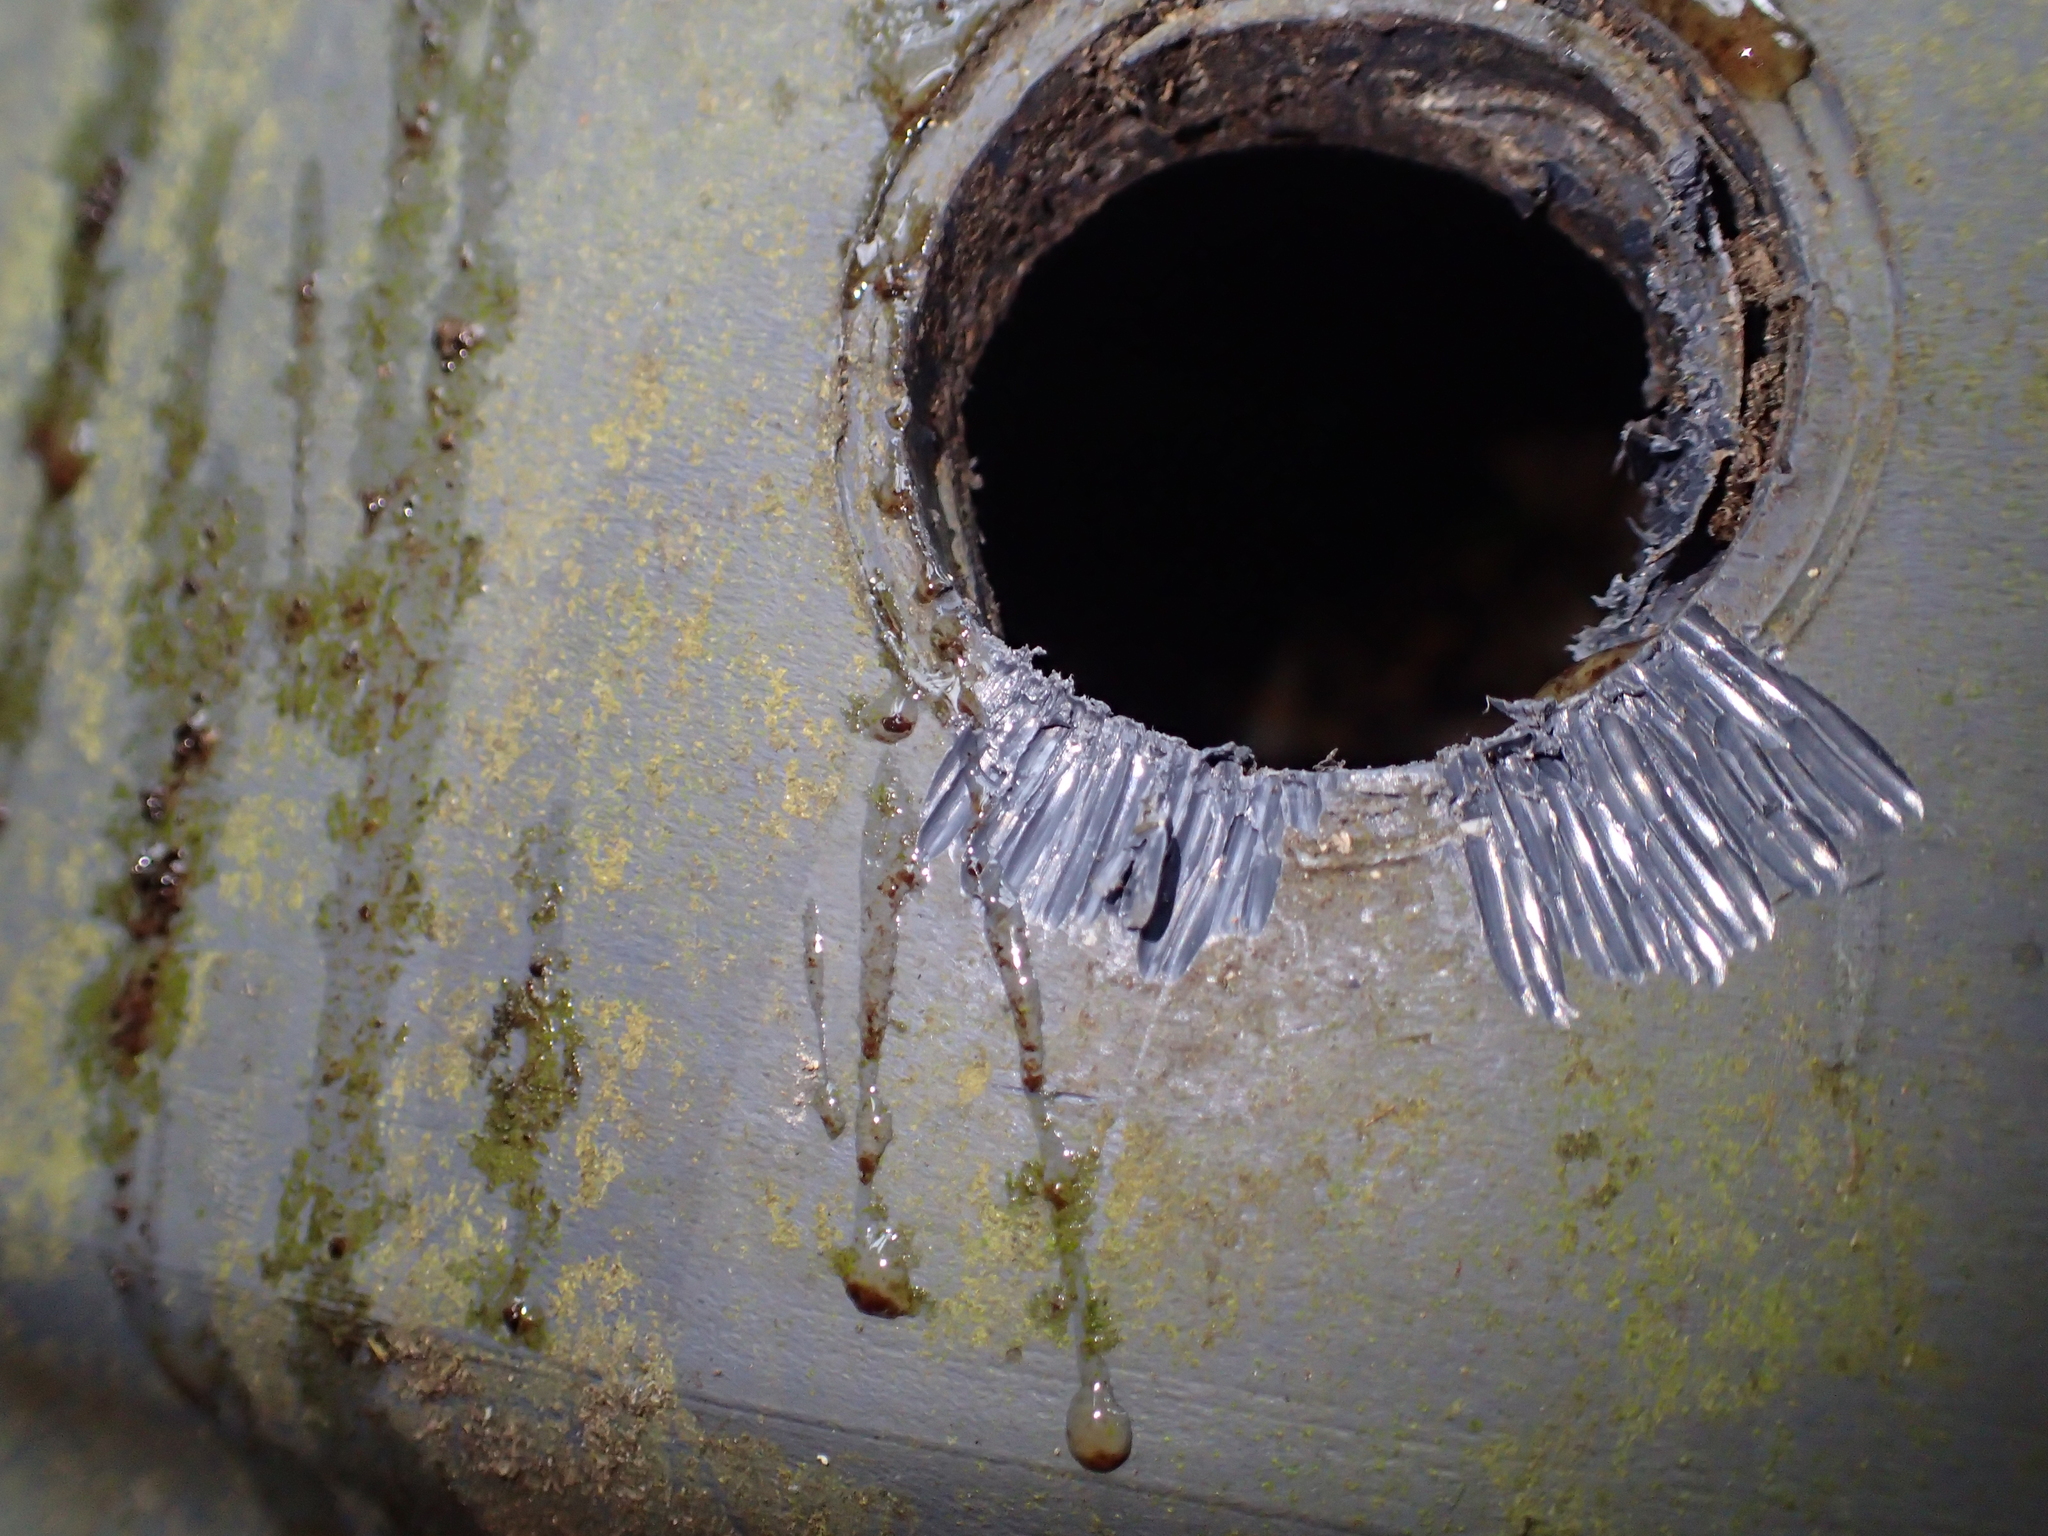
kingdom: Animalia
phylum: Chordata
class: Mammalia
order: Rodentia
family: Muridae
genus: Rattus
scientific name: Rattus
